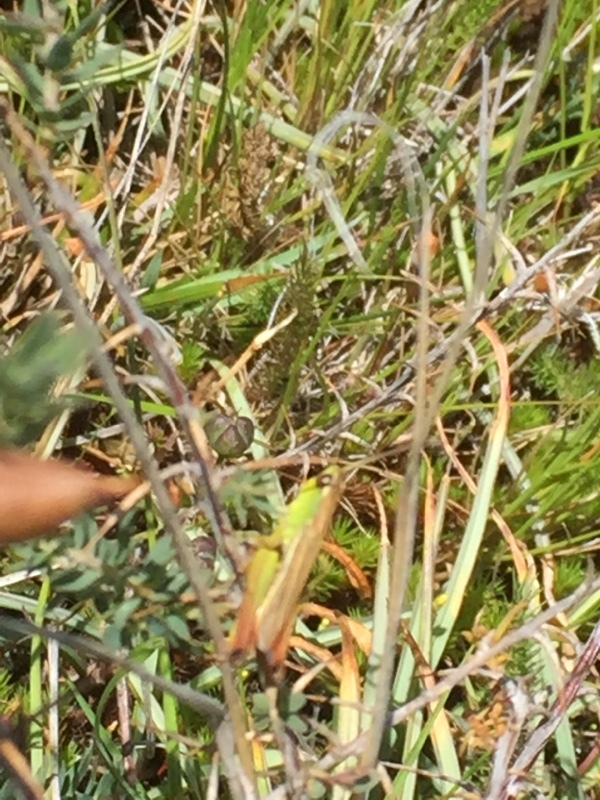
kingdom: Animalia
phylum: Arthropoda
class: Insecta
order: Orthoptera
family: Acrididae
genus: Pseudochorthippus
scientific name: Pseudochorthippus parallelus
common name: Meadow grasshopper
